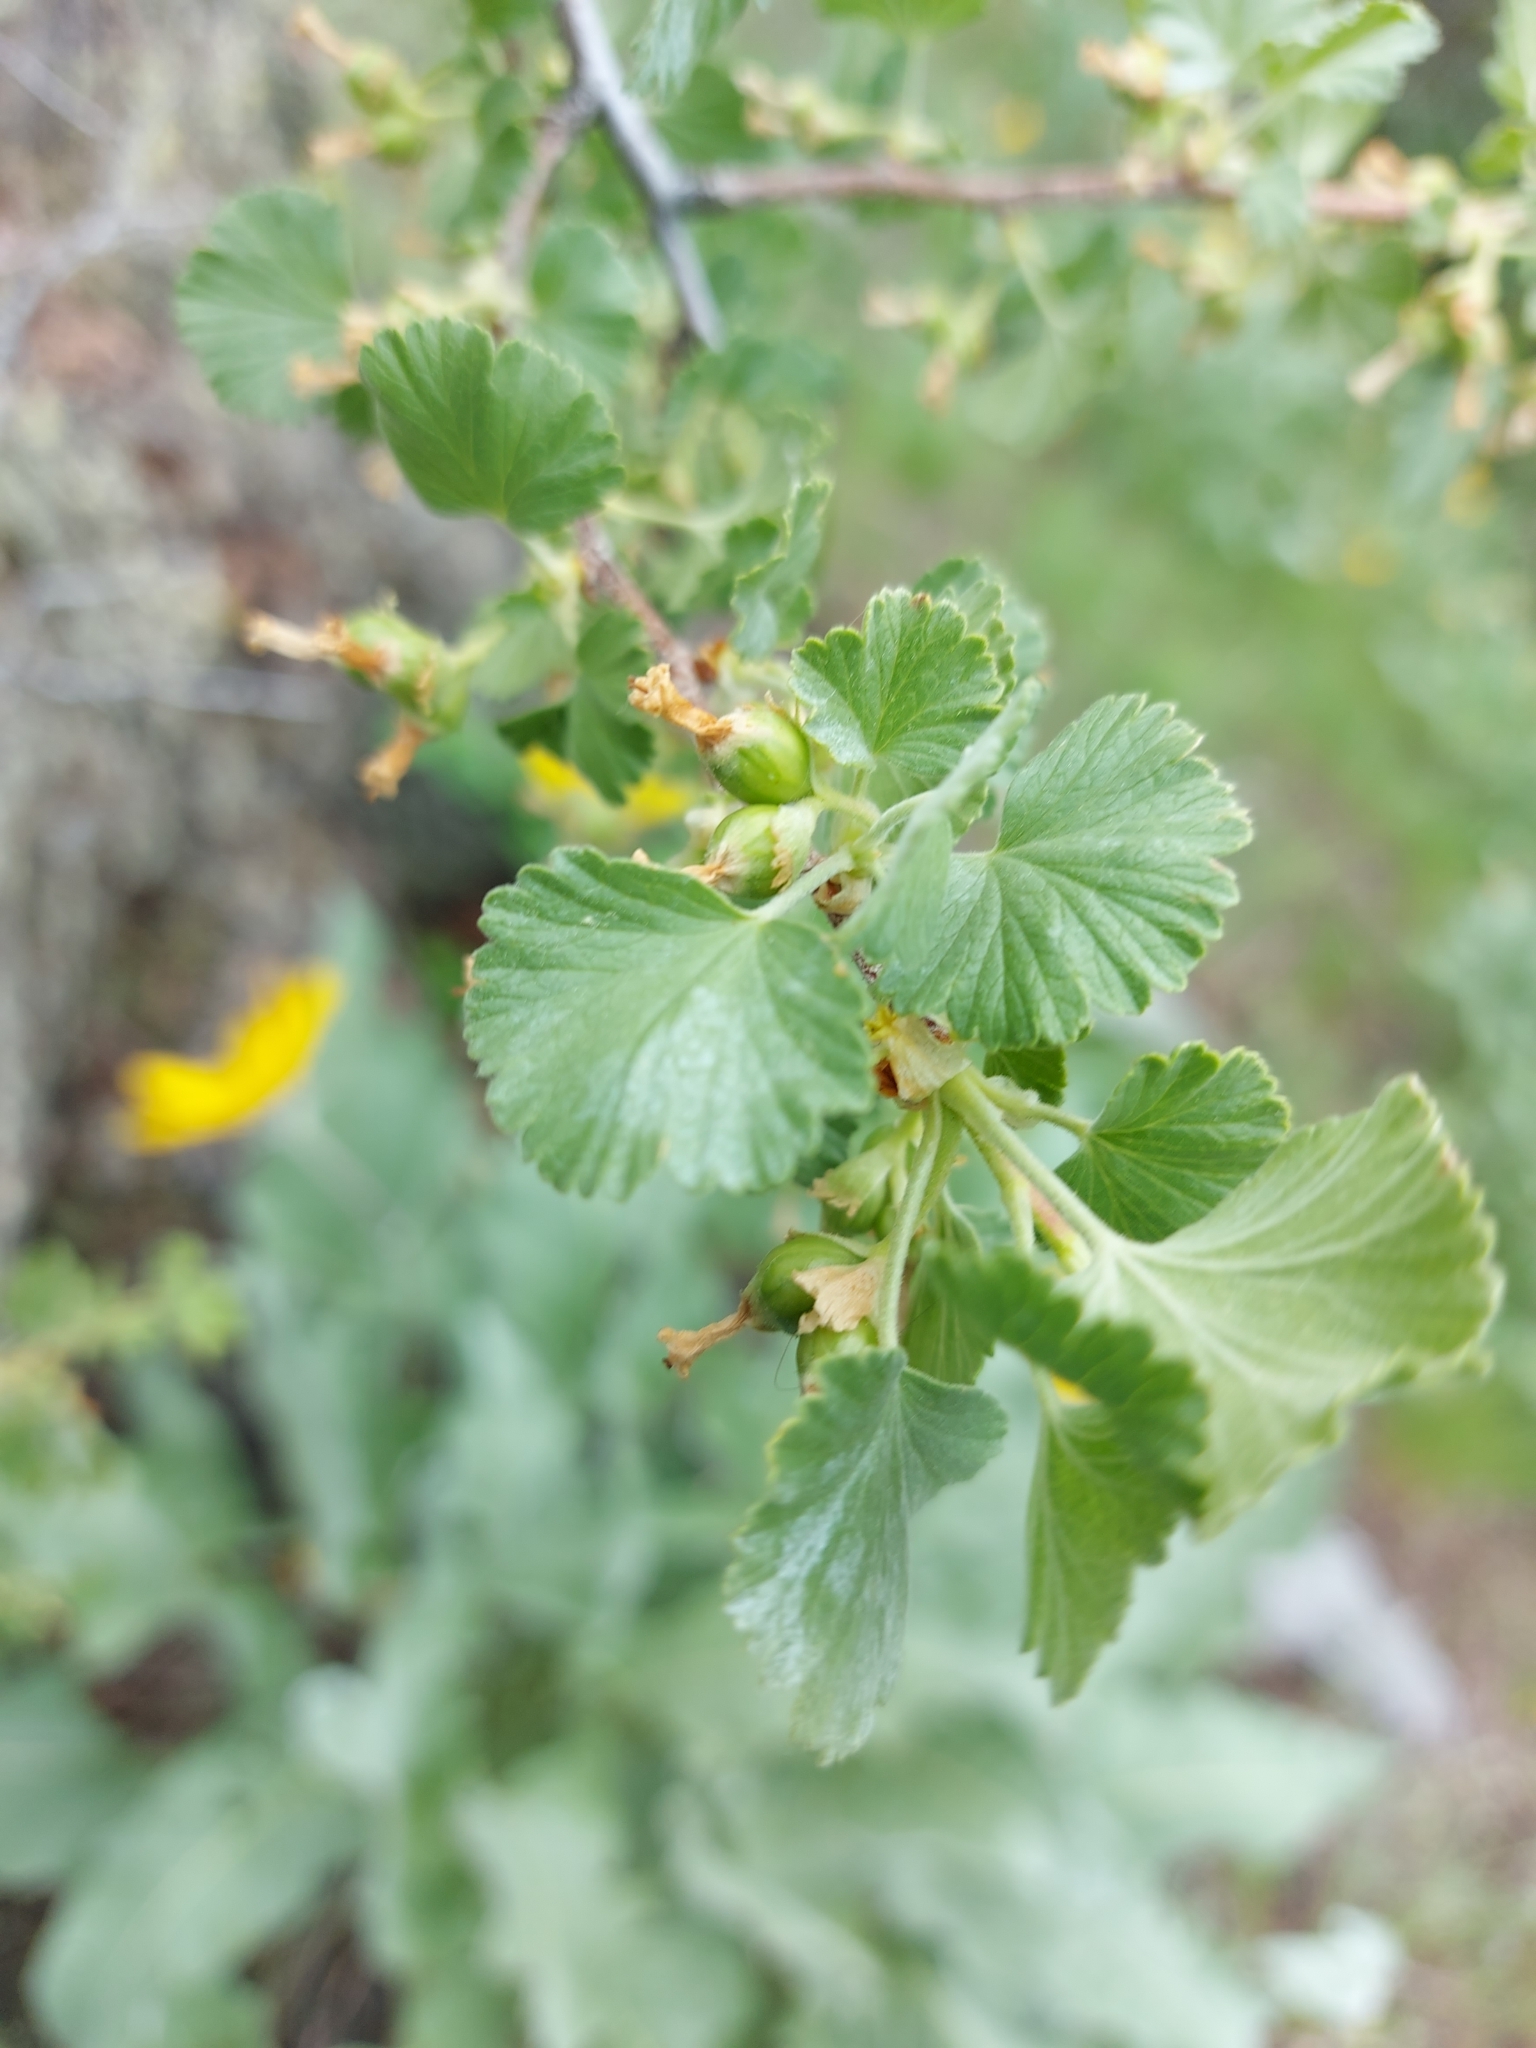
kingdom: Plantae
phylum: Tracheophyta
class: Magnoliopsida
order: Saxifragales
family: Grossulariaceae
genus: Ribes
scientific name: Ribes cereum
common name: Wax currant
